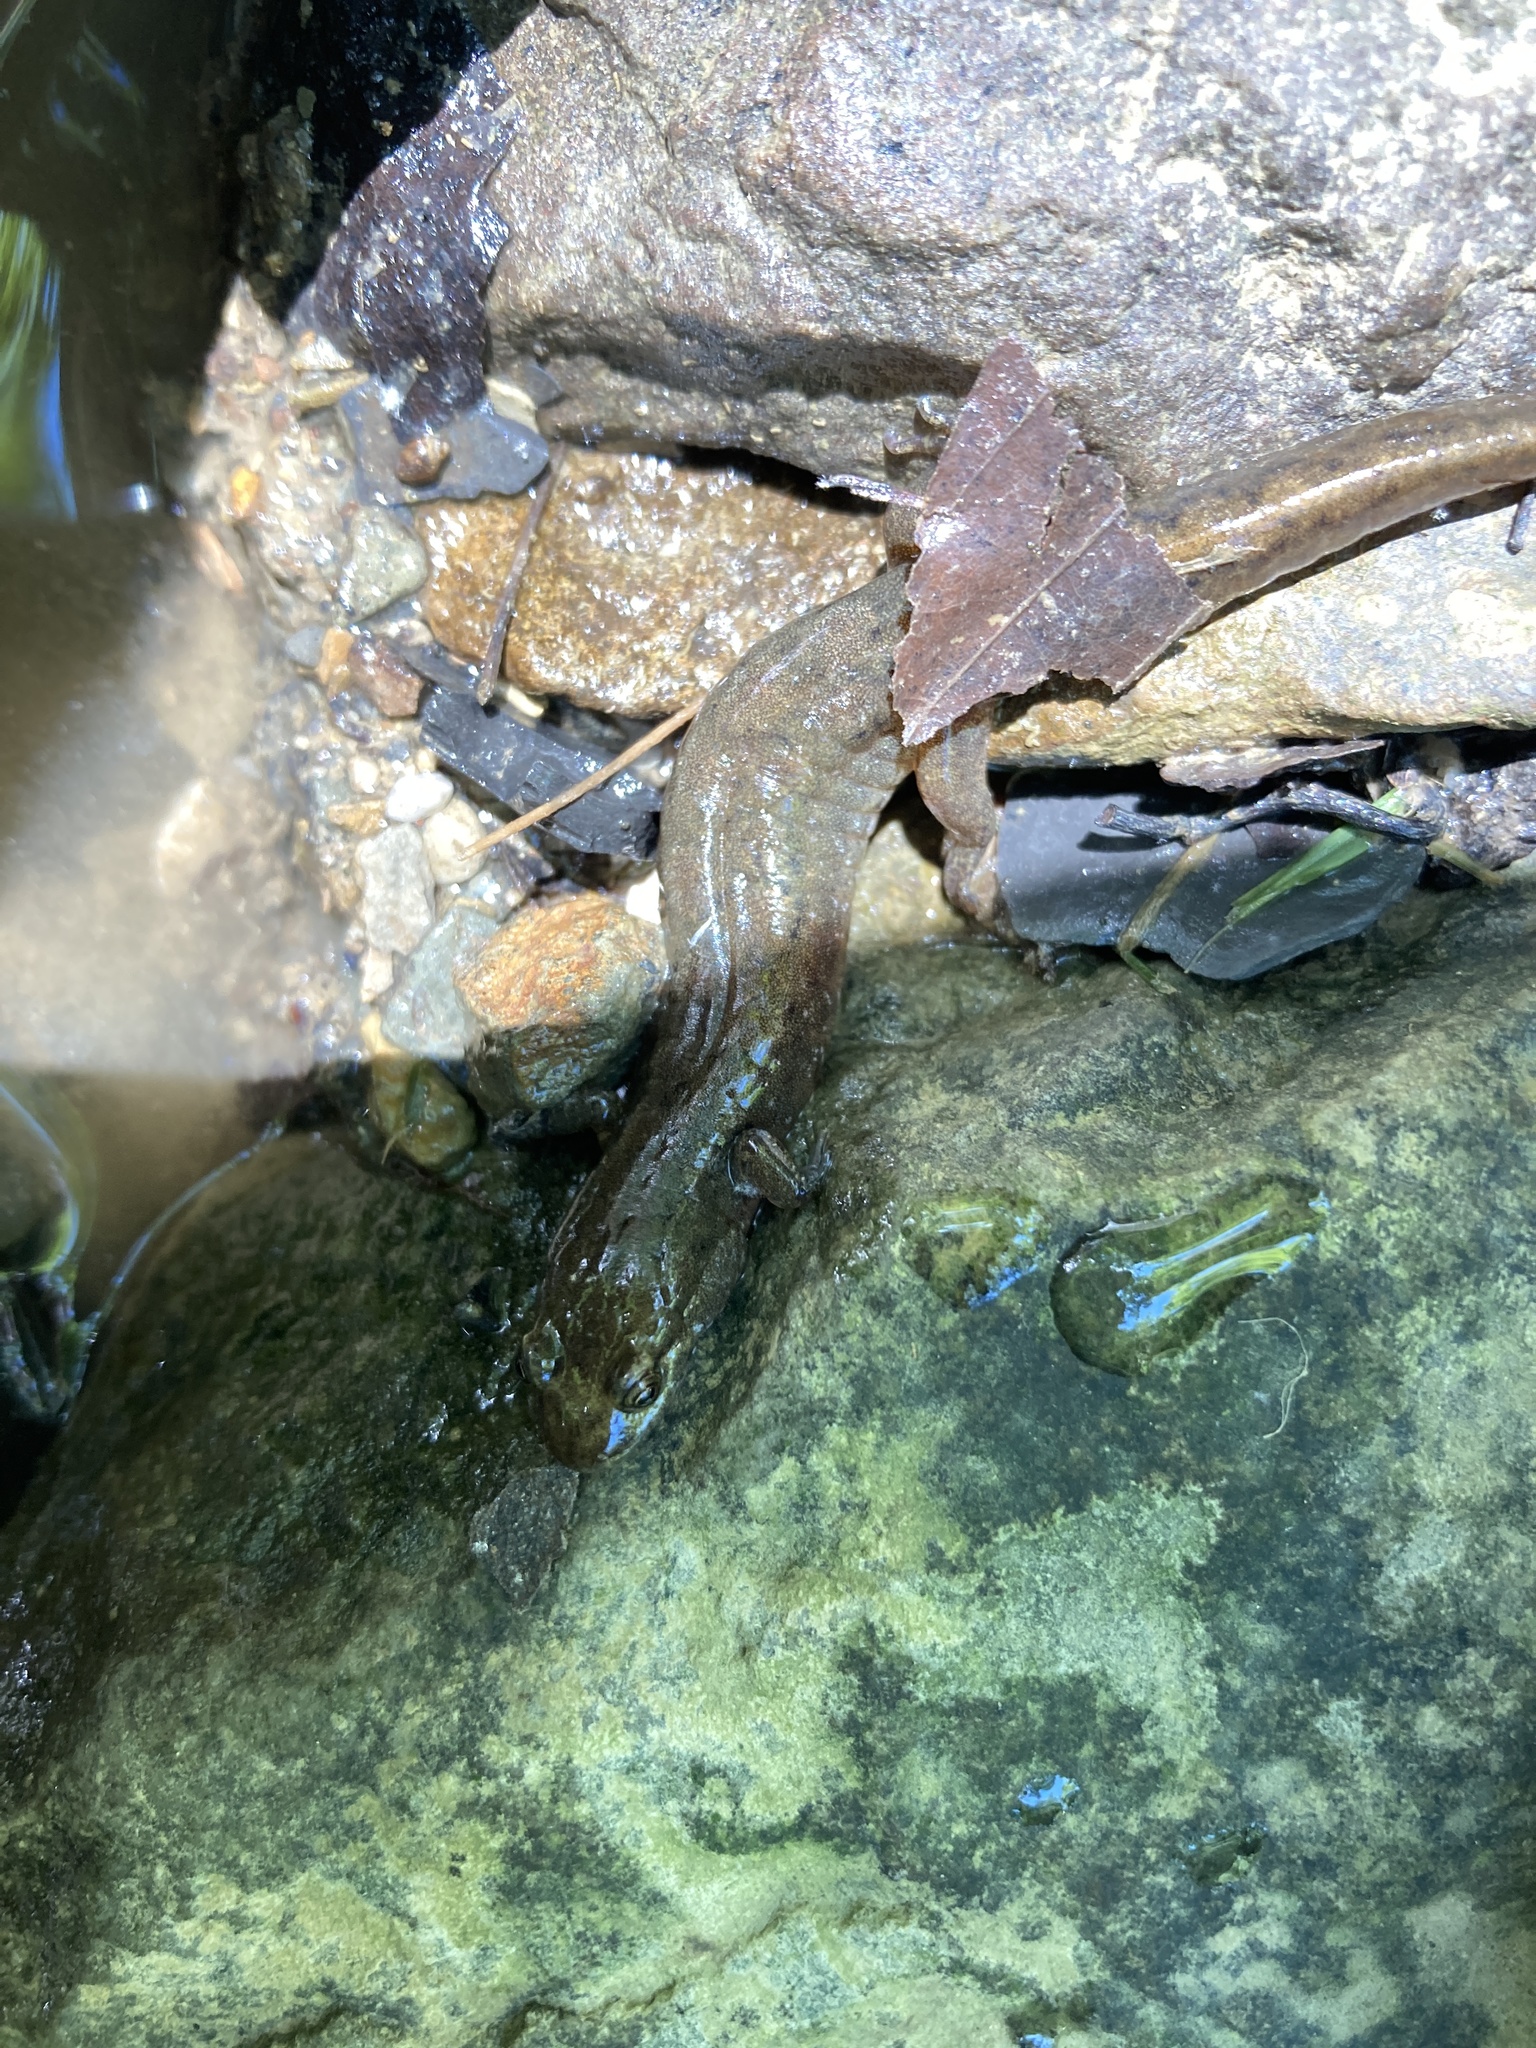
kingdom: Animalia
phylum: Chordata
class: Amphibia
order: Caudata
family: Plethodontidae
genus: Desmognathus
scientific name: Desmognathus fuscus
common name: Northern dusky salamander
